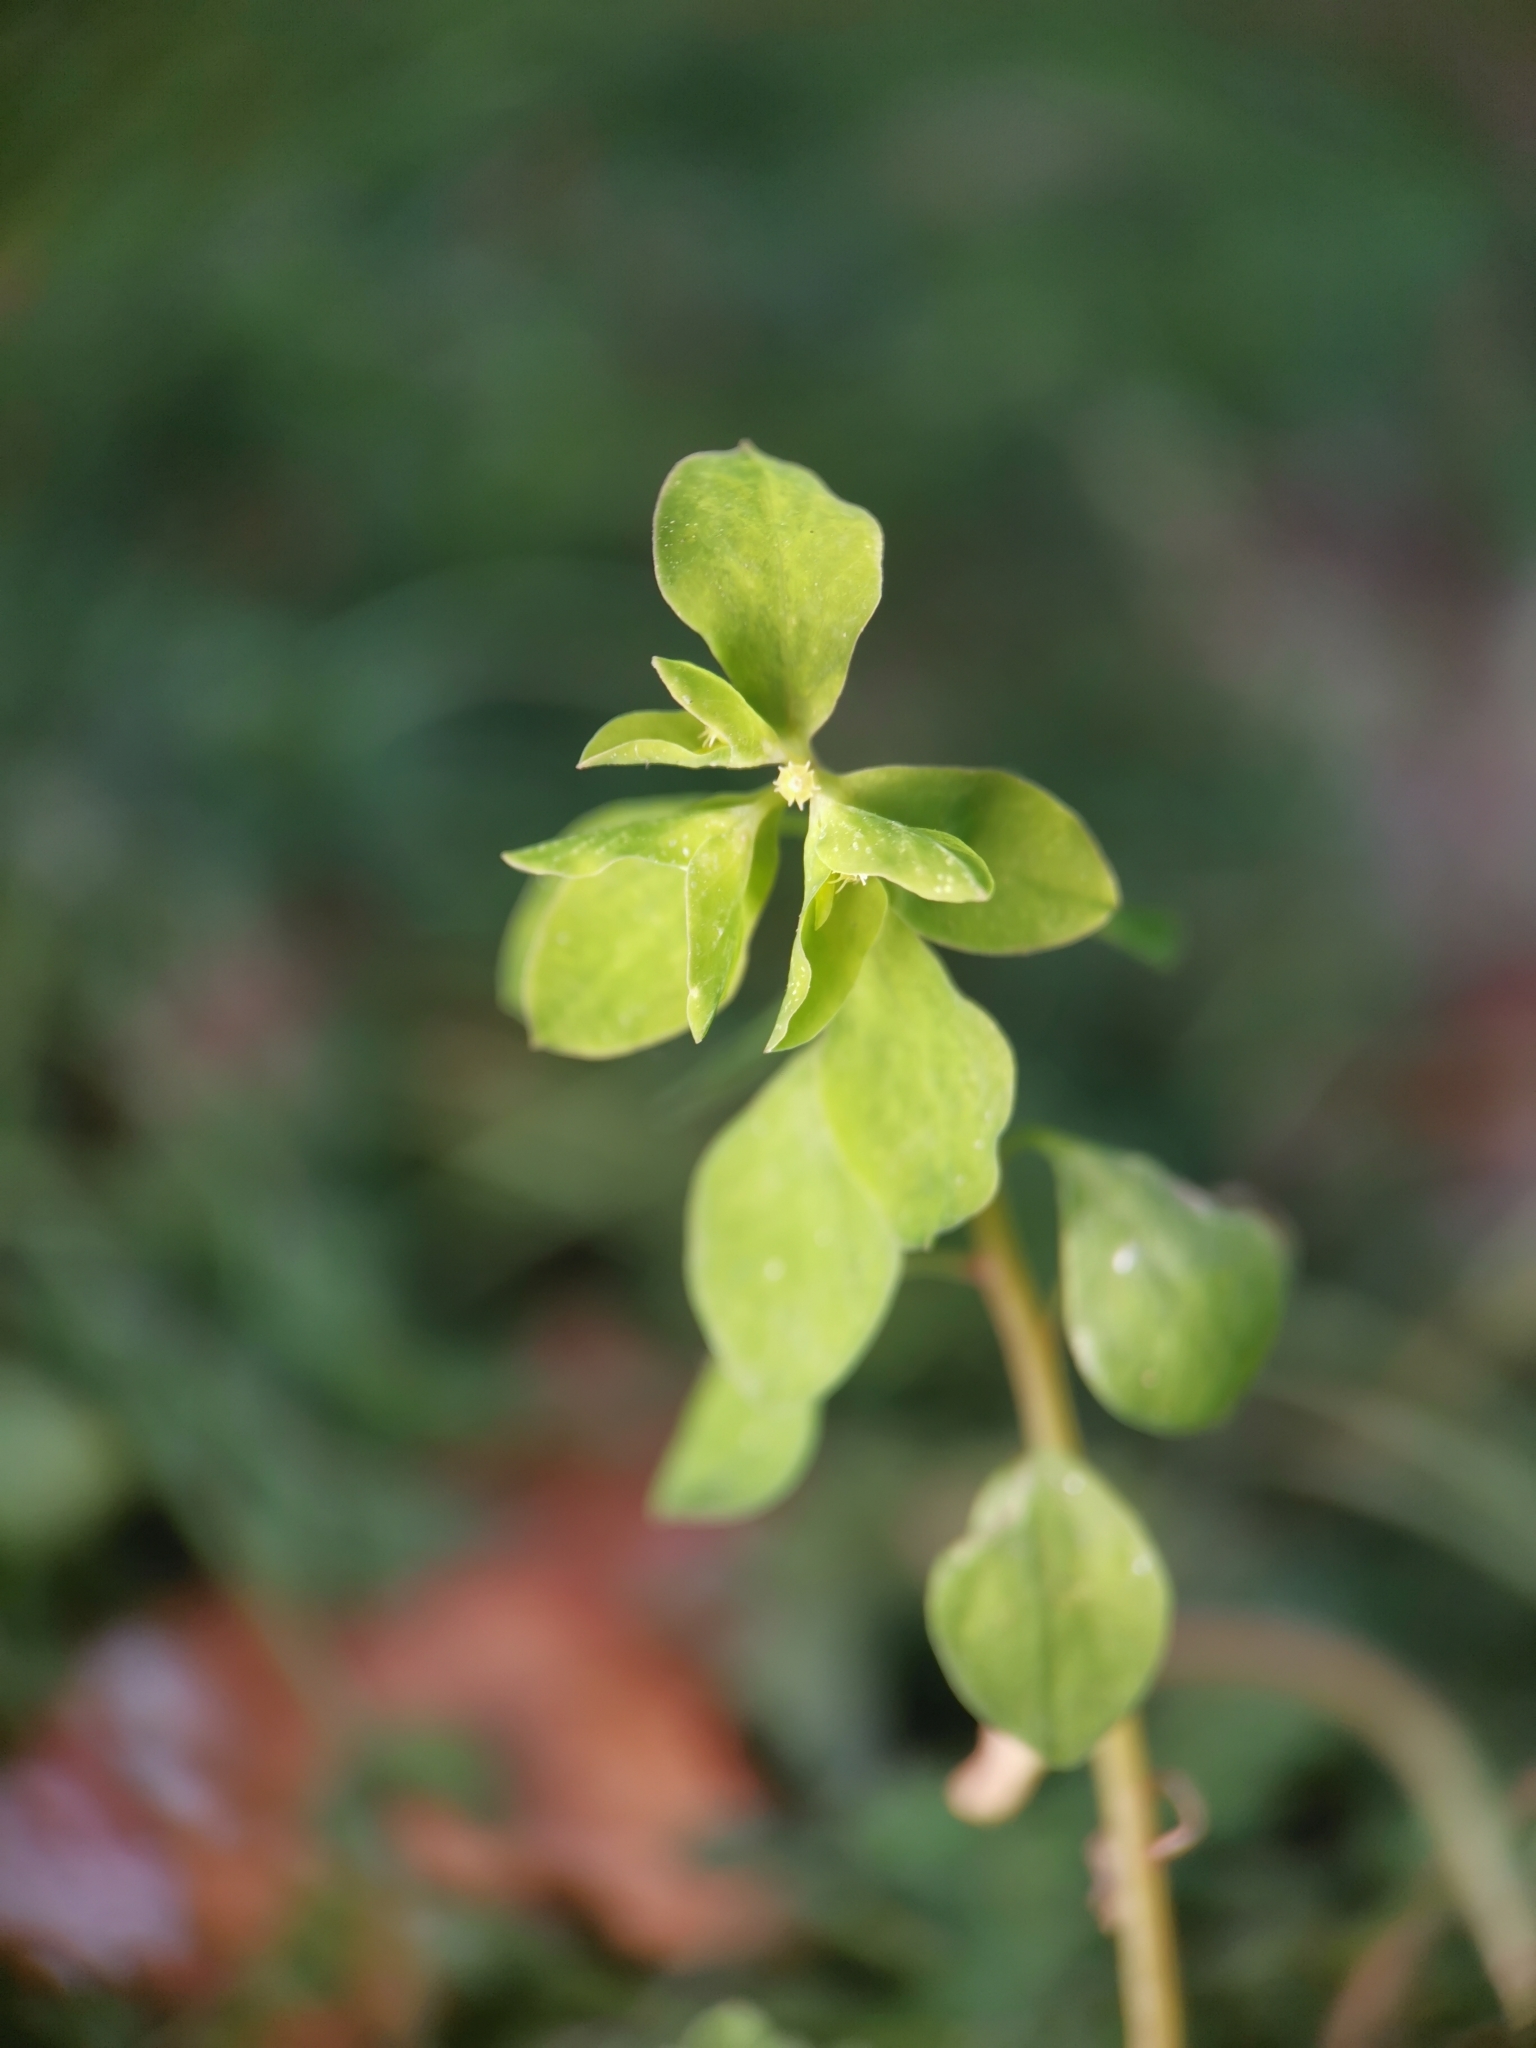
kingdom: Plantae
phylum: Tracheophyta
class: Magnoliopsida
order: Malpighiales
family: Euphorbiaceae
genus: Euphorbia
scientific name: Euphorbia peplus
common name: Petty spurge
